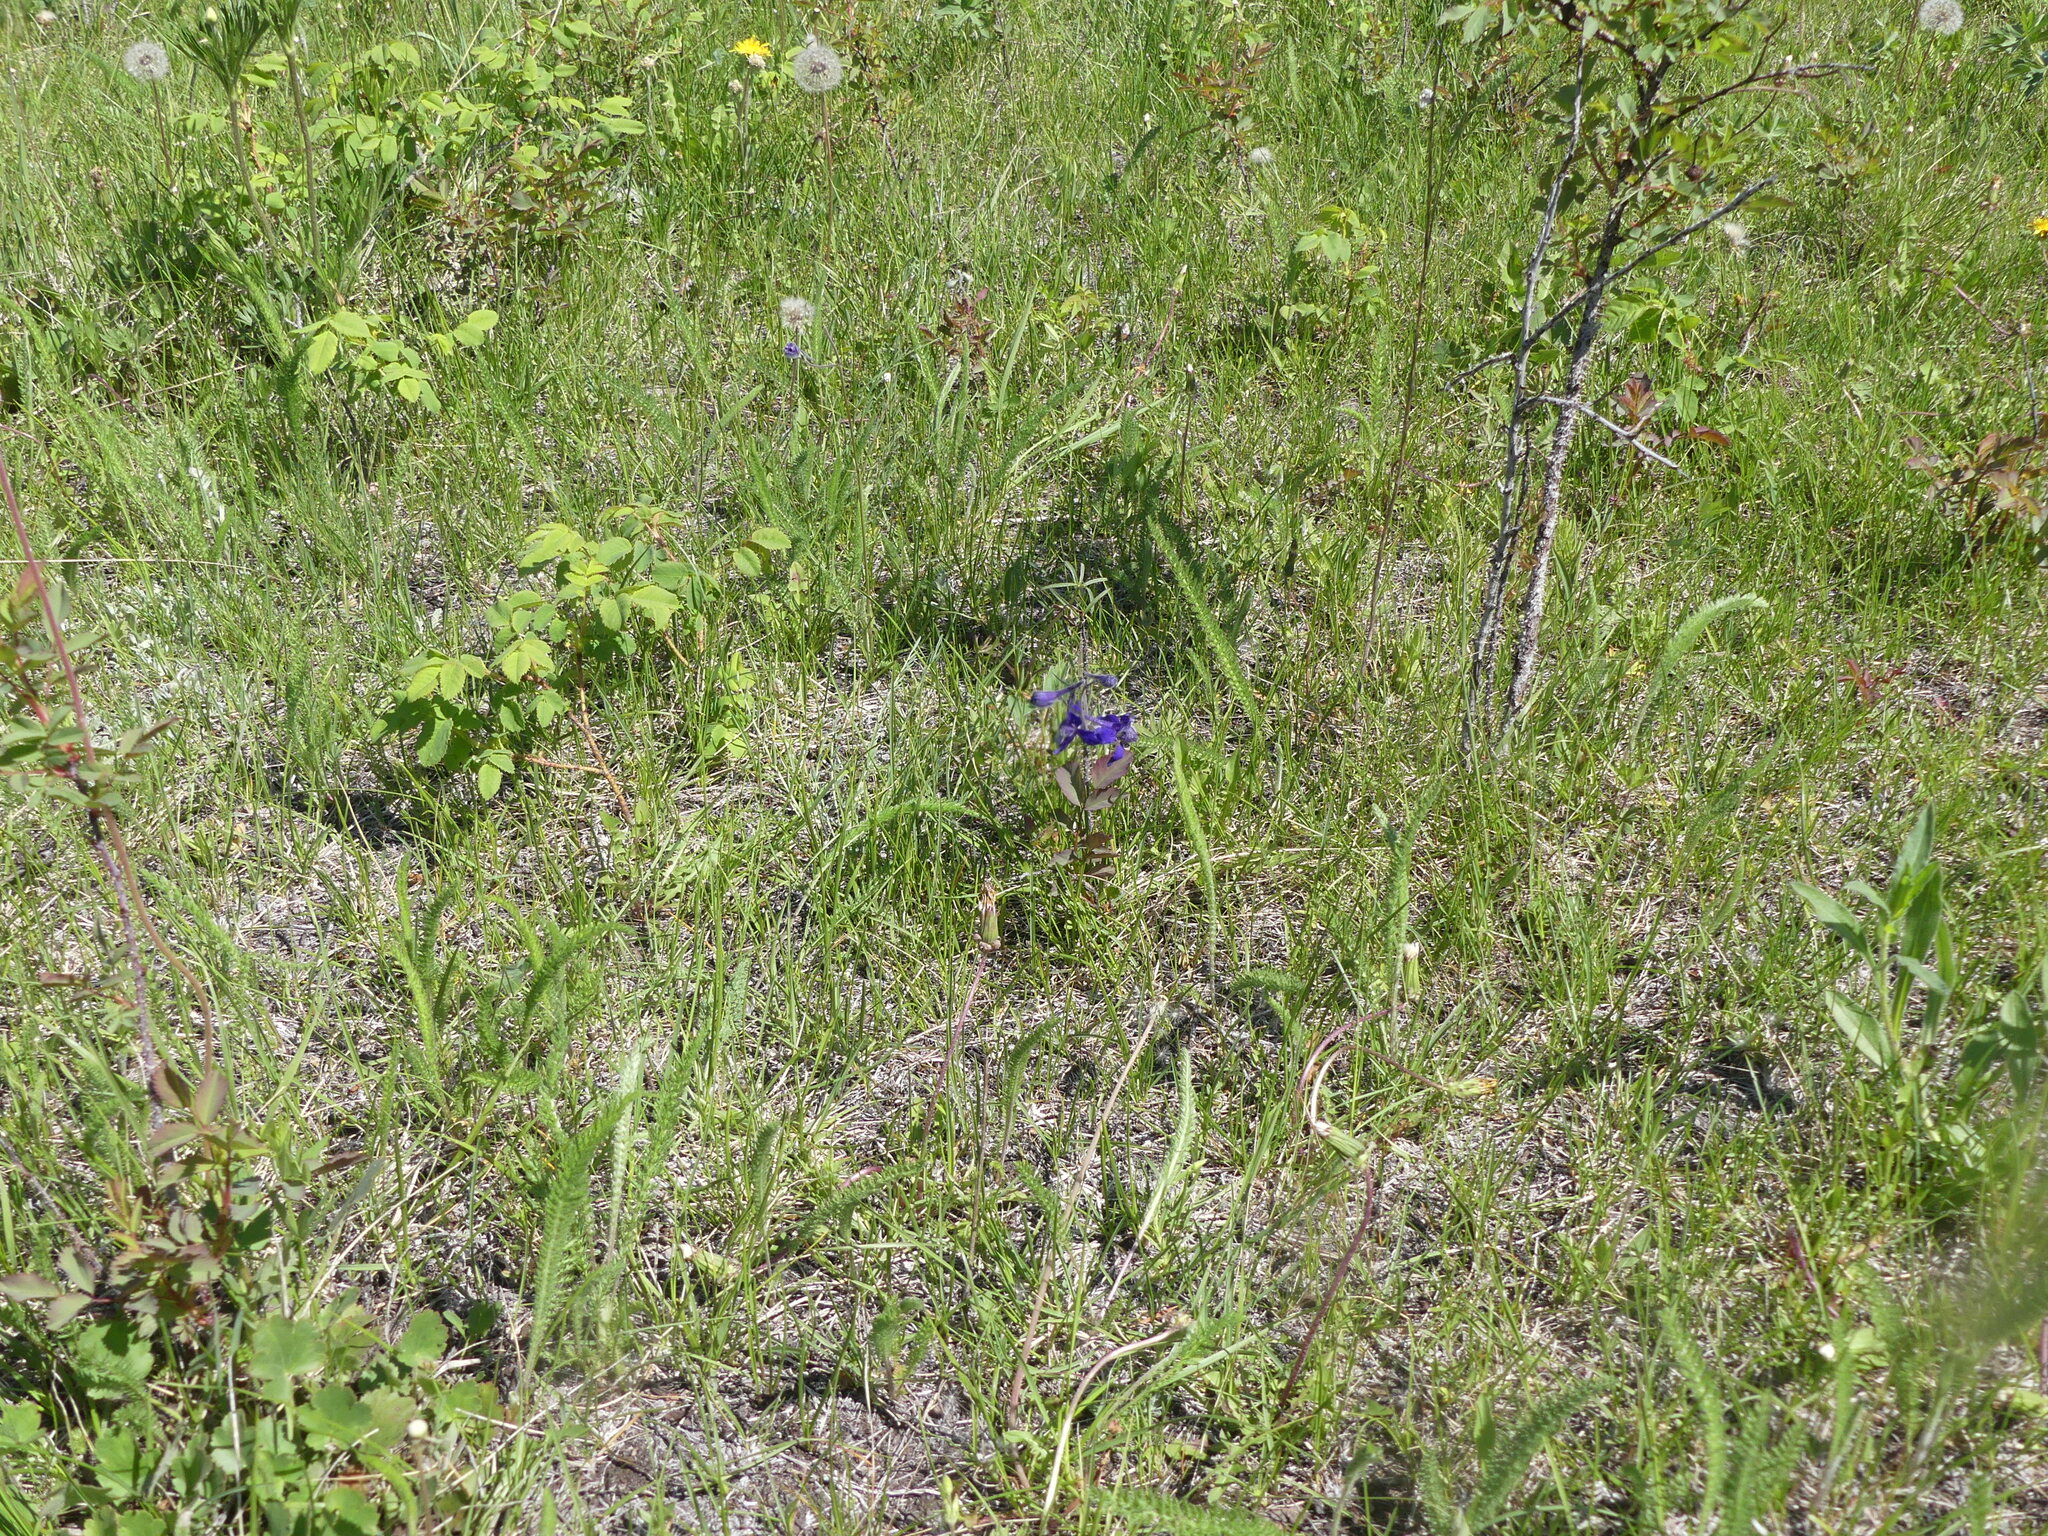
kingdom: Plantae
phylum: Tracheophyta
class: Magnoliopsida
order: Ranunculales
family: Ranunculaceae
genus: Delphinium
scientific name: Delphinium nuttallianum
